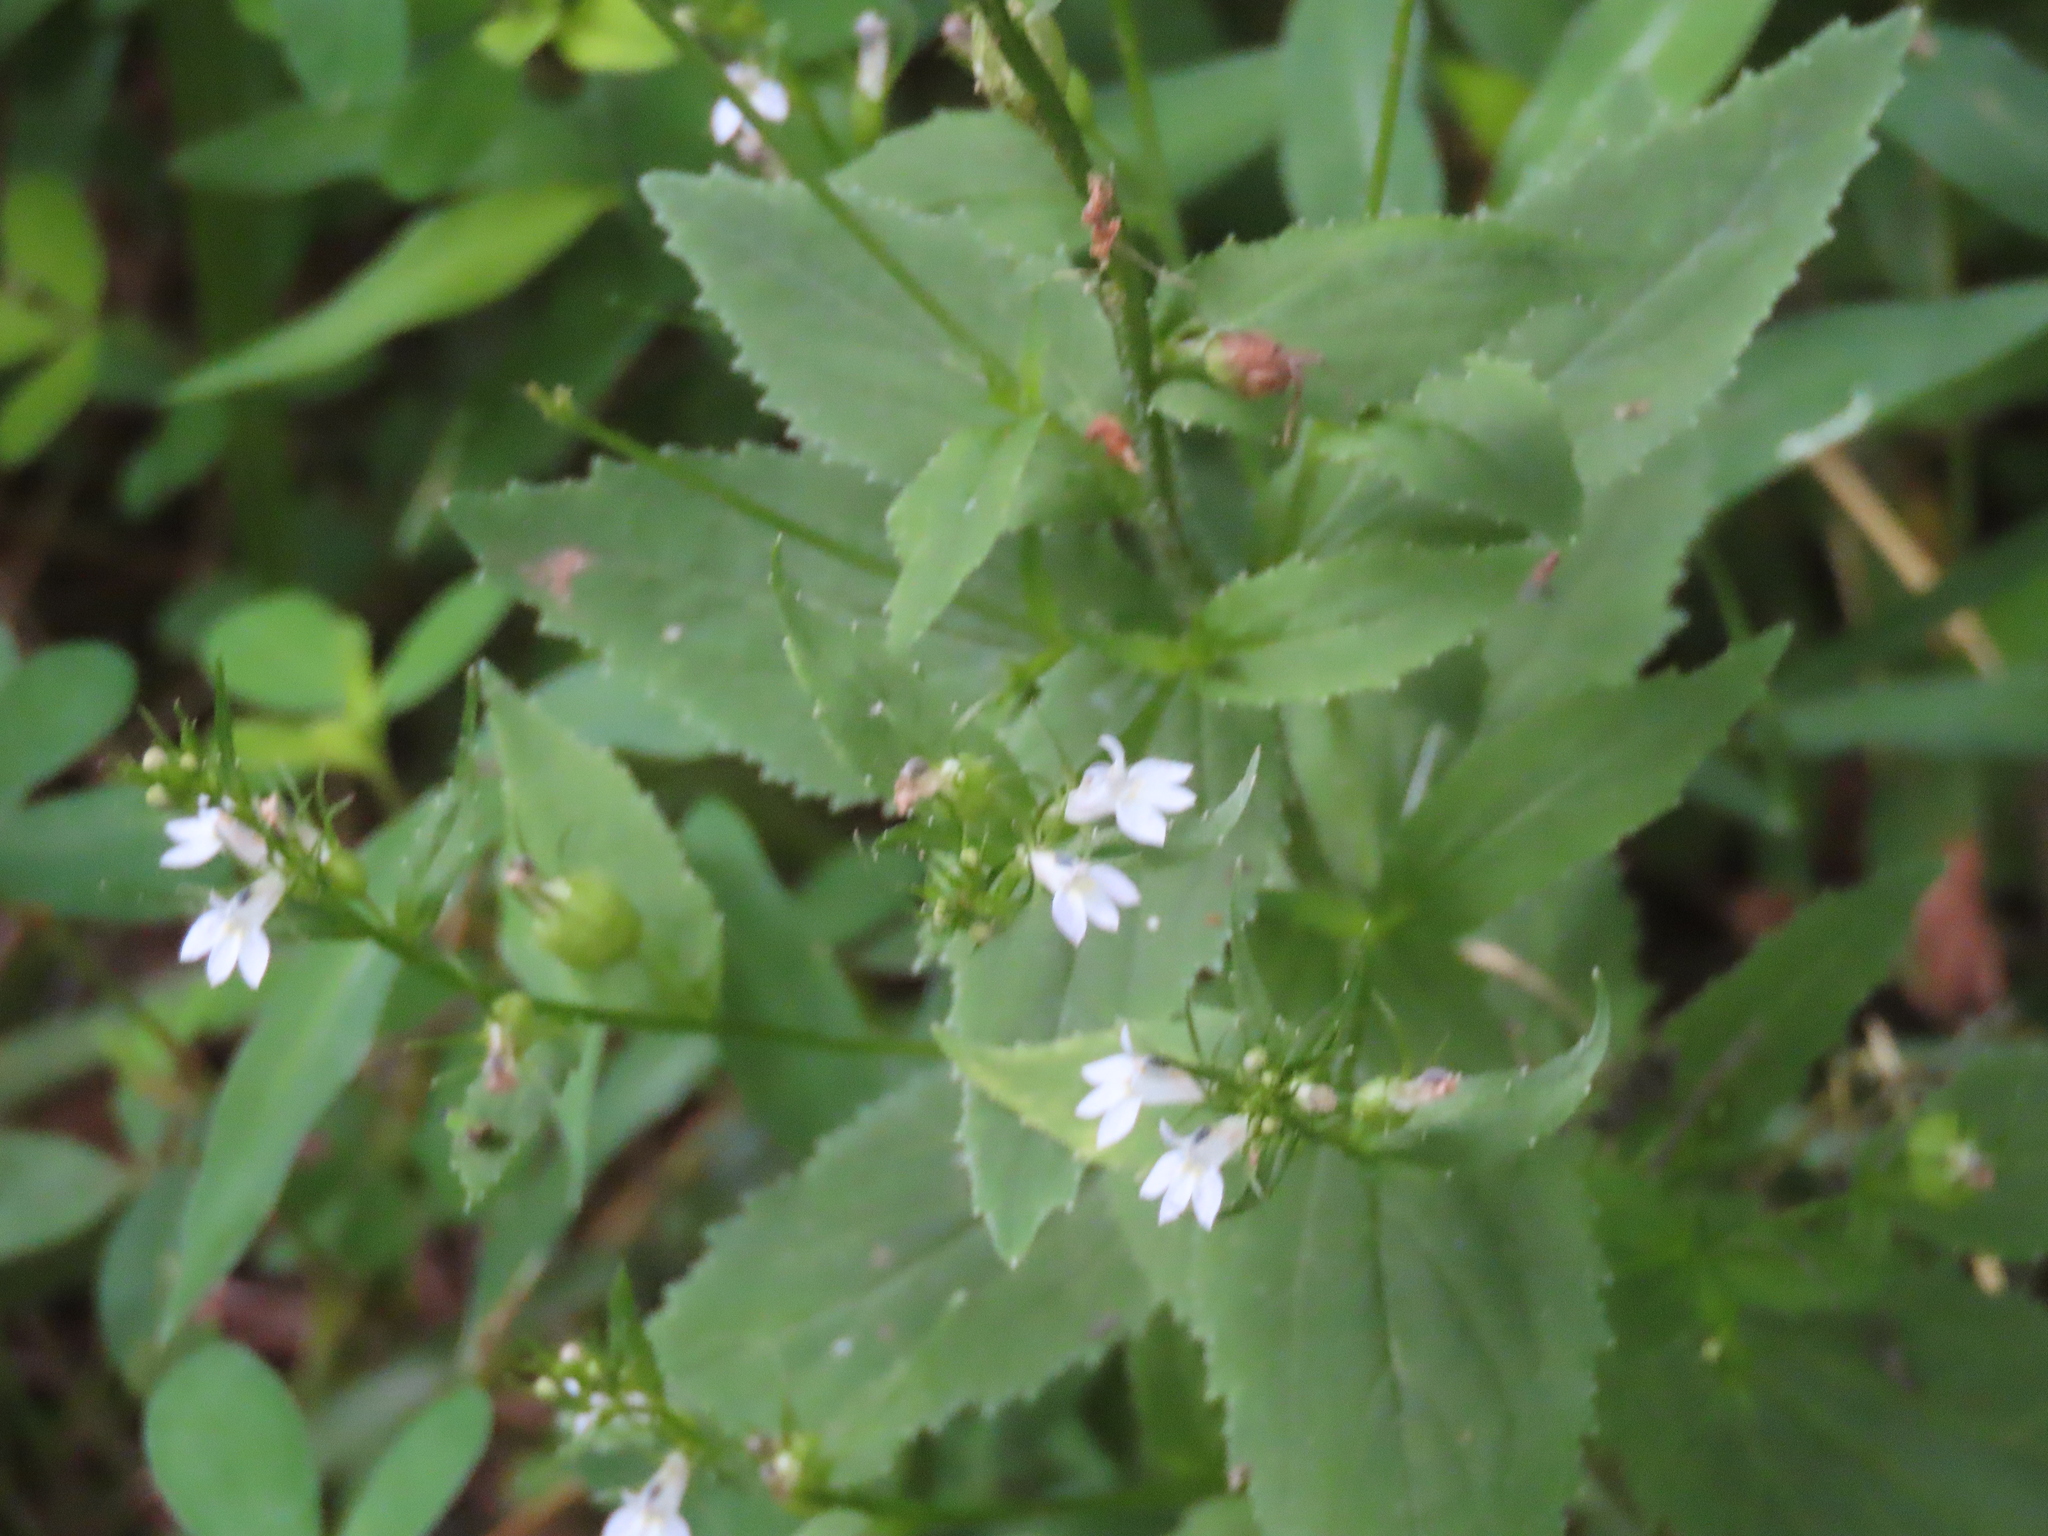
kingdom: Plantae
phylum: Tracheophyta
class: Magnoliopsida
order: Asterales
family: Campanulaceae
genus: Lobelia
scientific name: Lobelia inflata
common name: Indian tobacco
